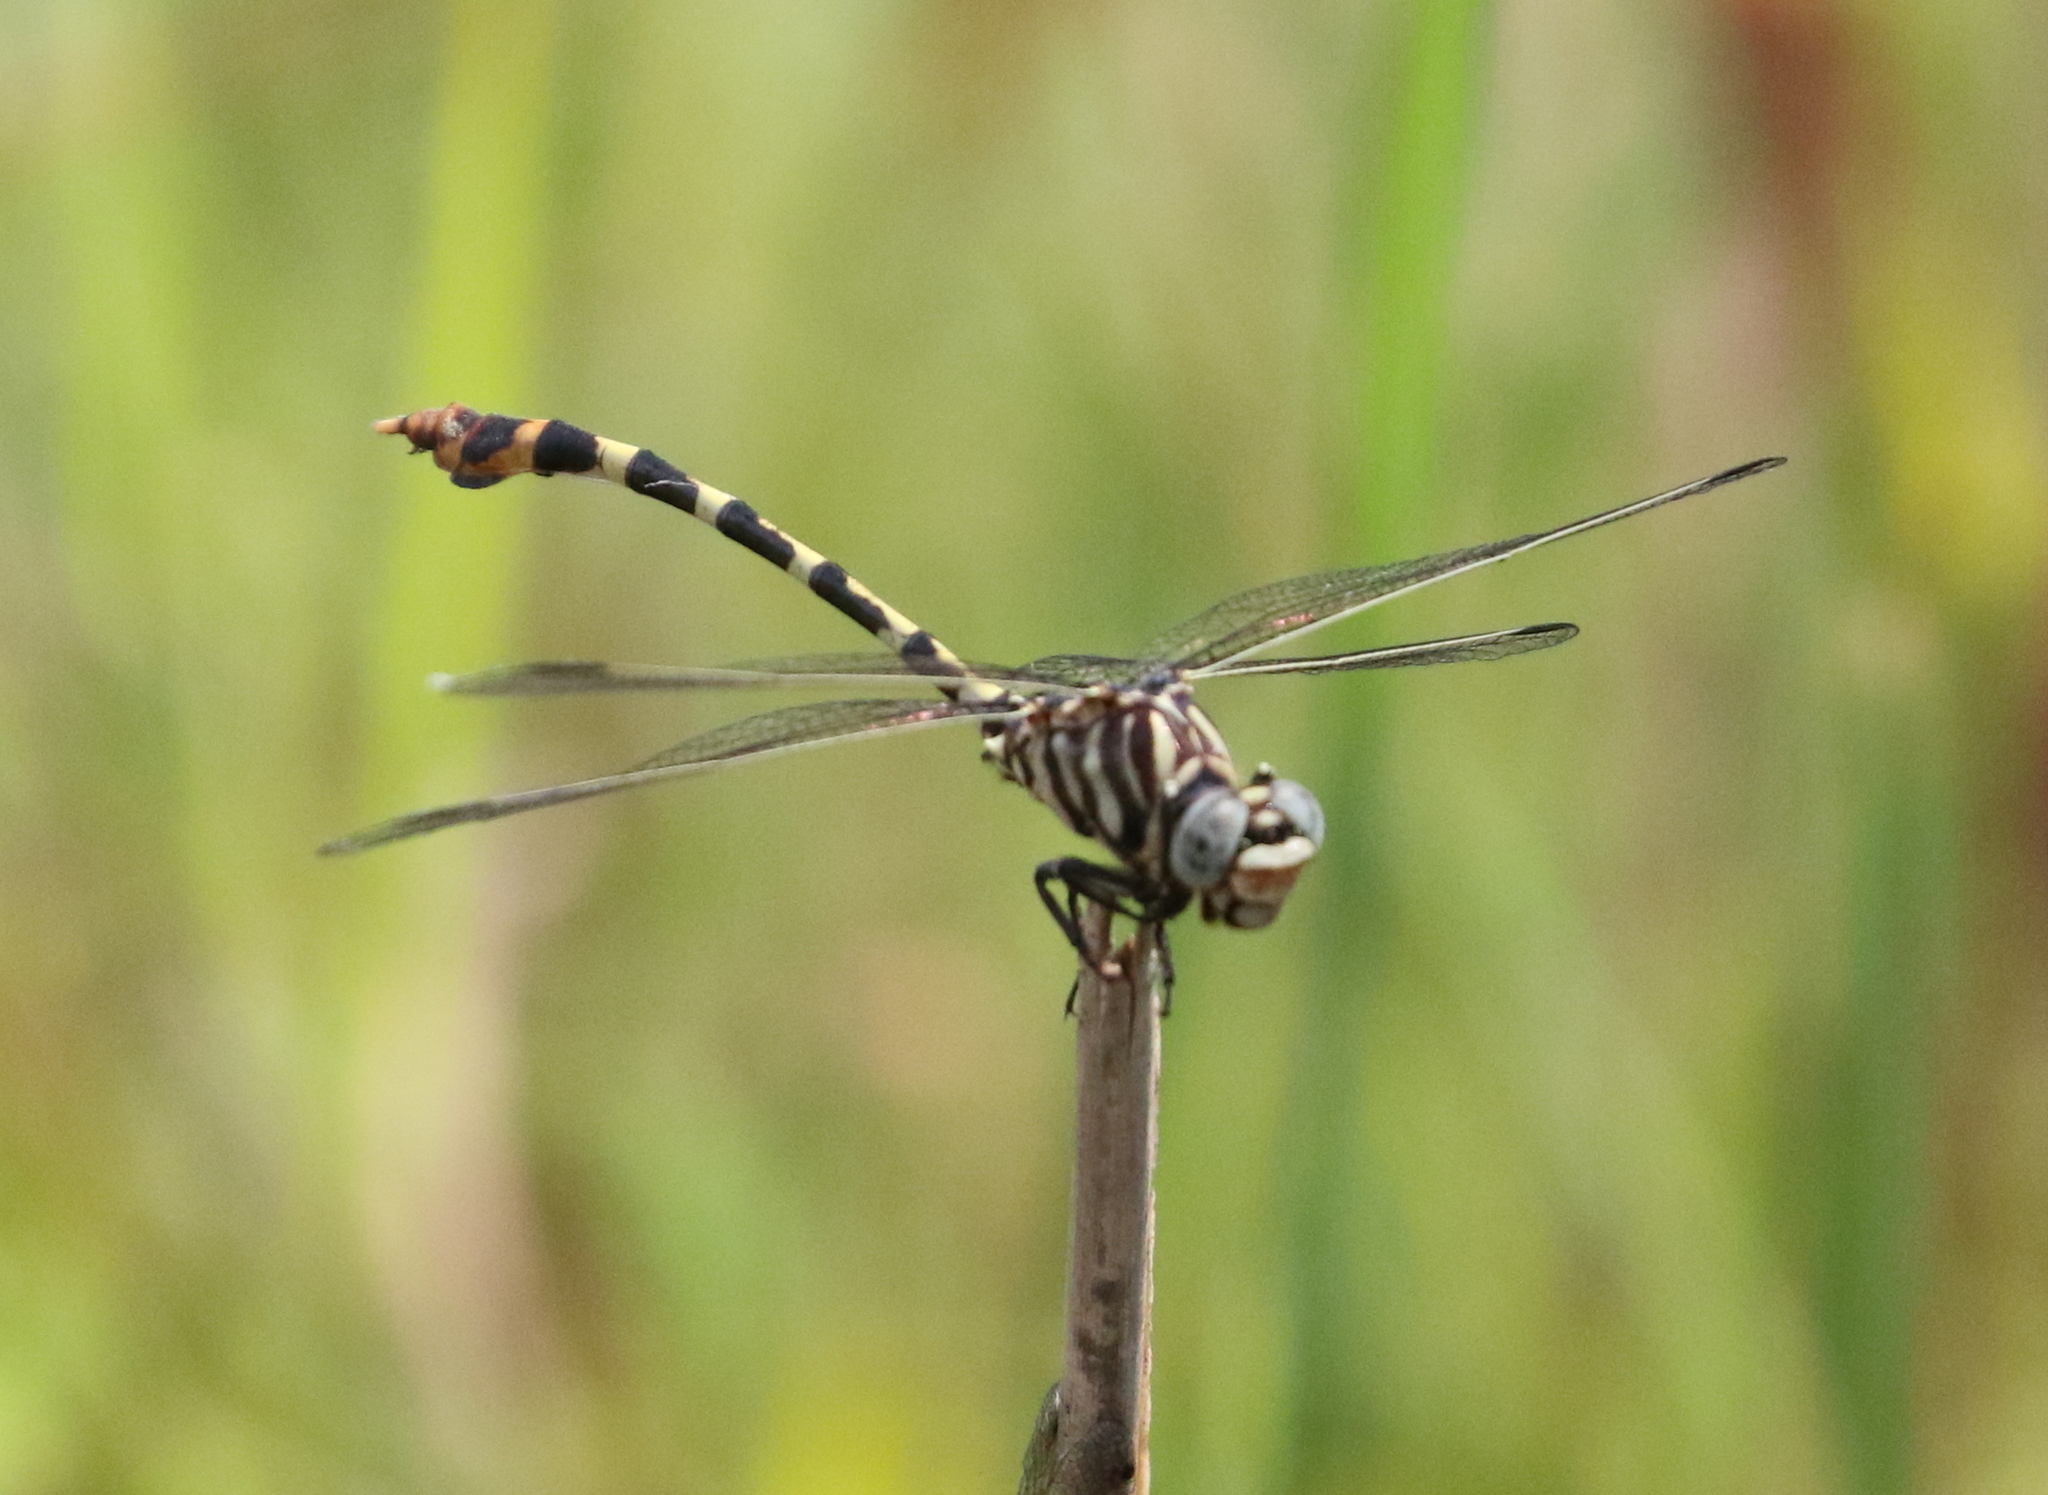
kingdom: Animalia
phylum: Arthropoda
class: Insecta
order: Odonata
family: Gomphidae
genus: Phyllogomphoides
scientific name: Phyllogomphoides stigmatus
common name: Four-striped leaftail
